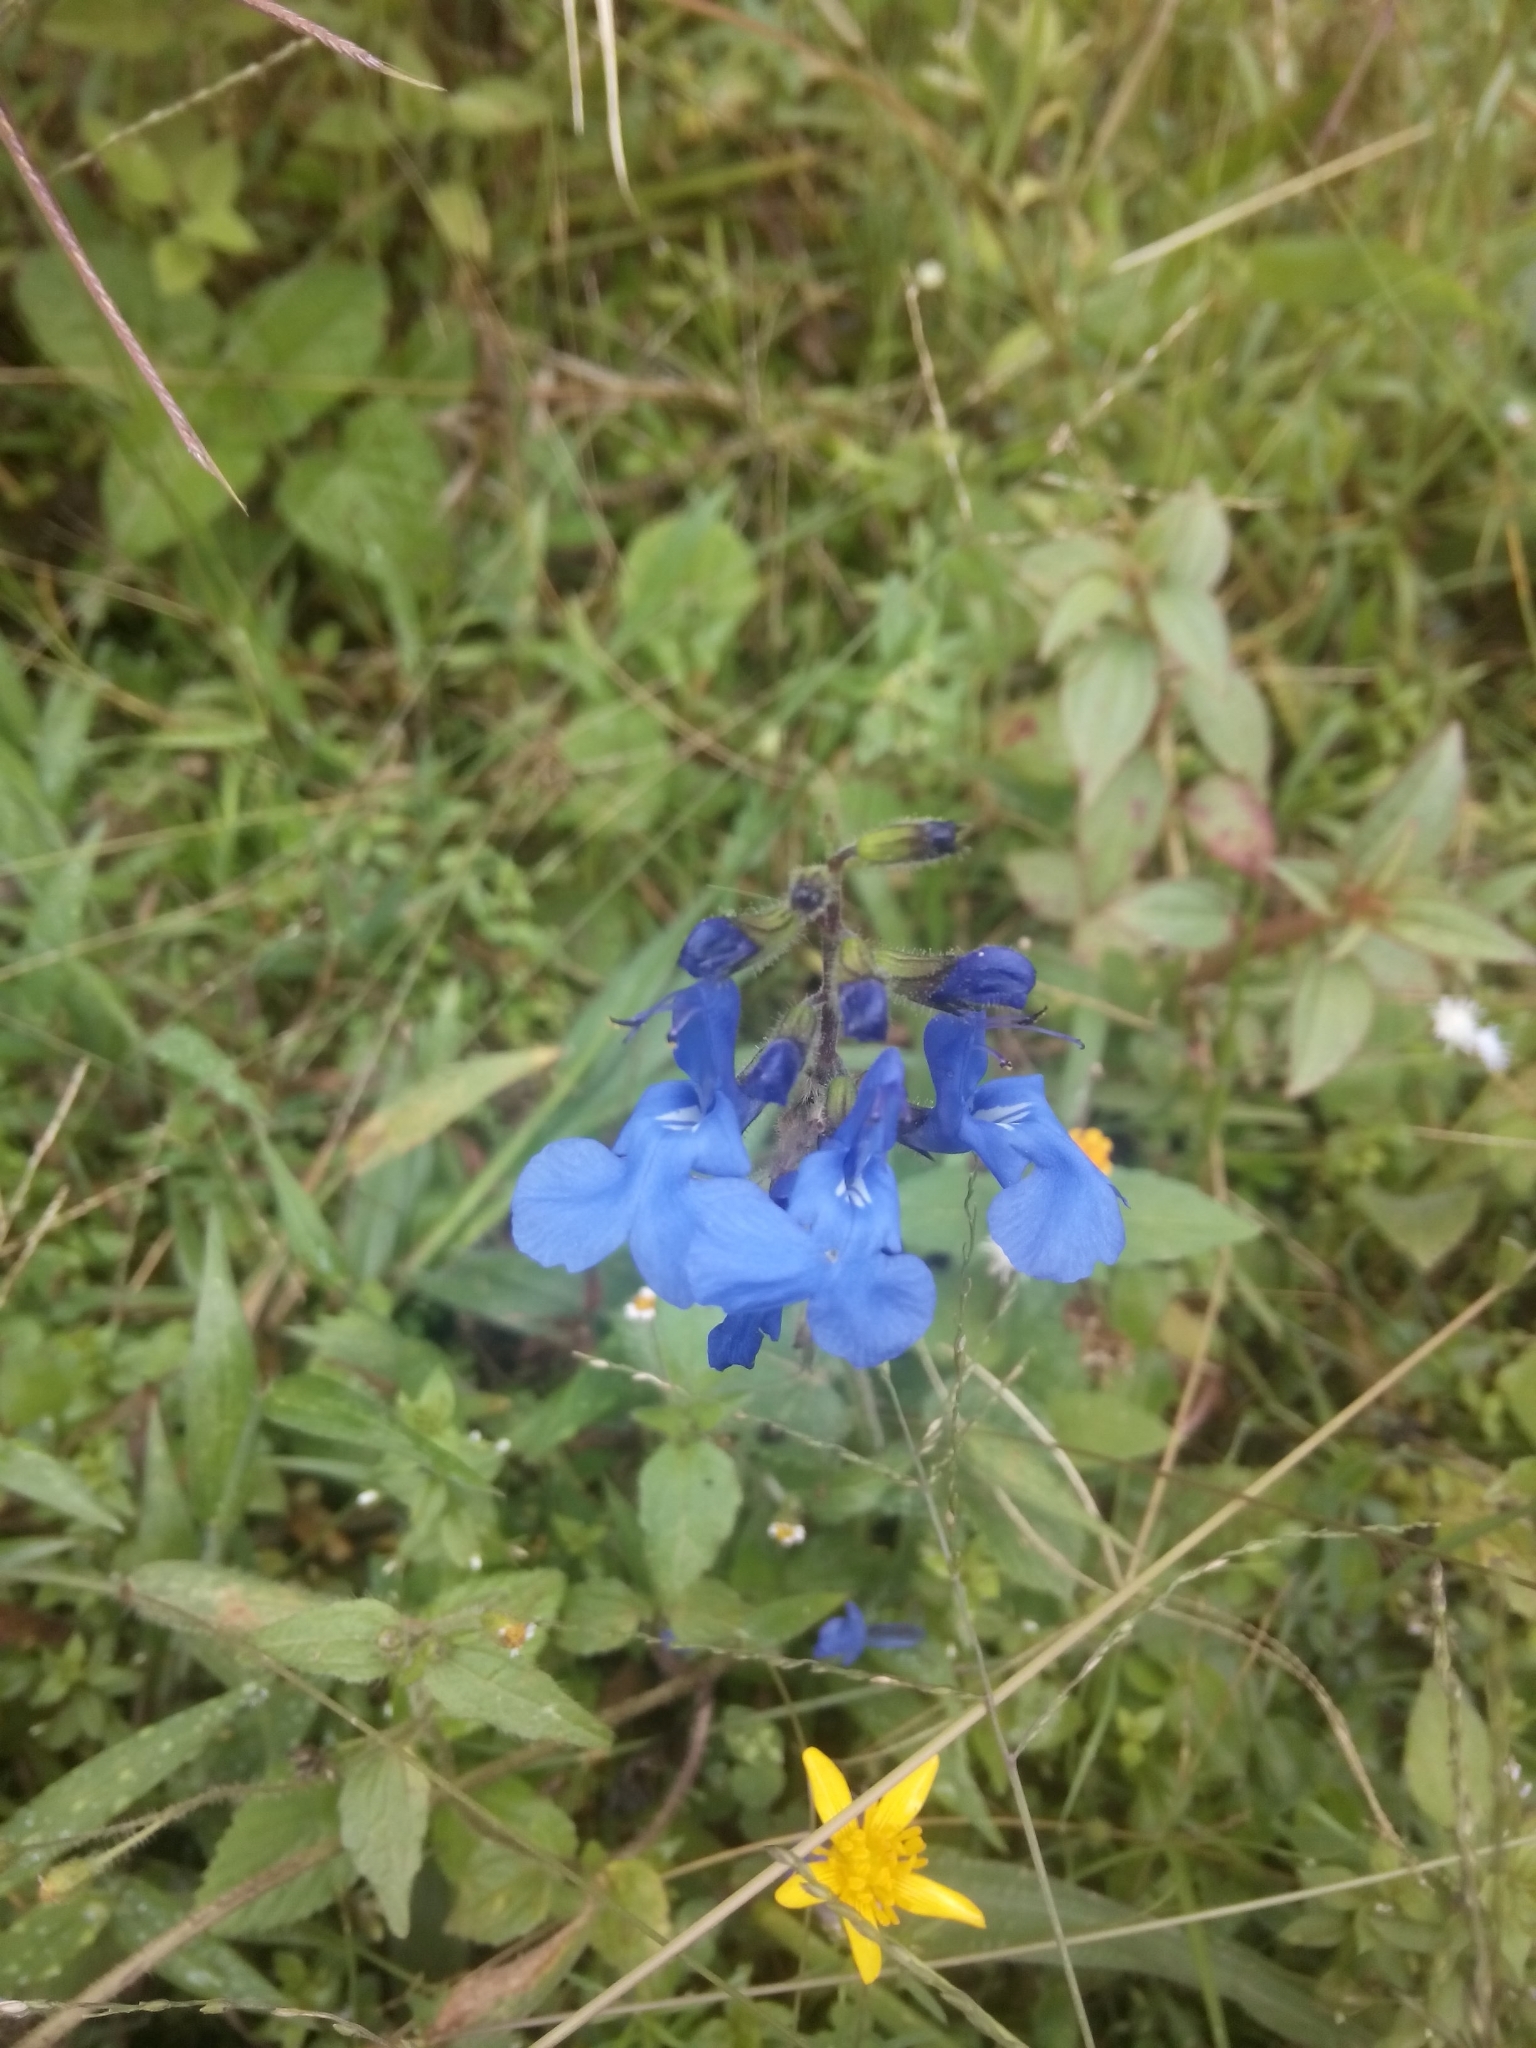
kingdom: Plantae
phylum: Tracheophyta
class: Magnoliopsida
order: Lamiales
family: Lamiaceae
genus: Salvia
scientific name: Salvia scutellarioides
